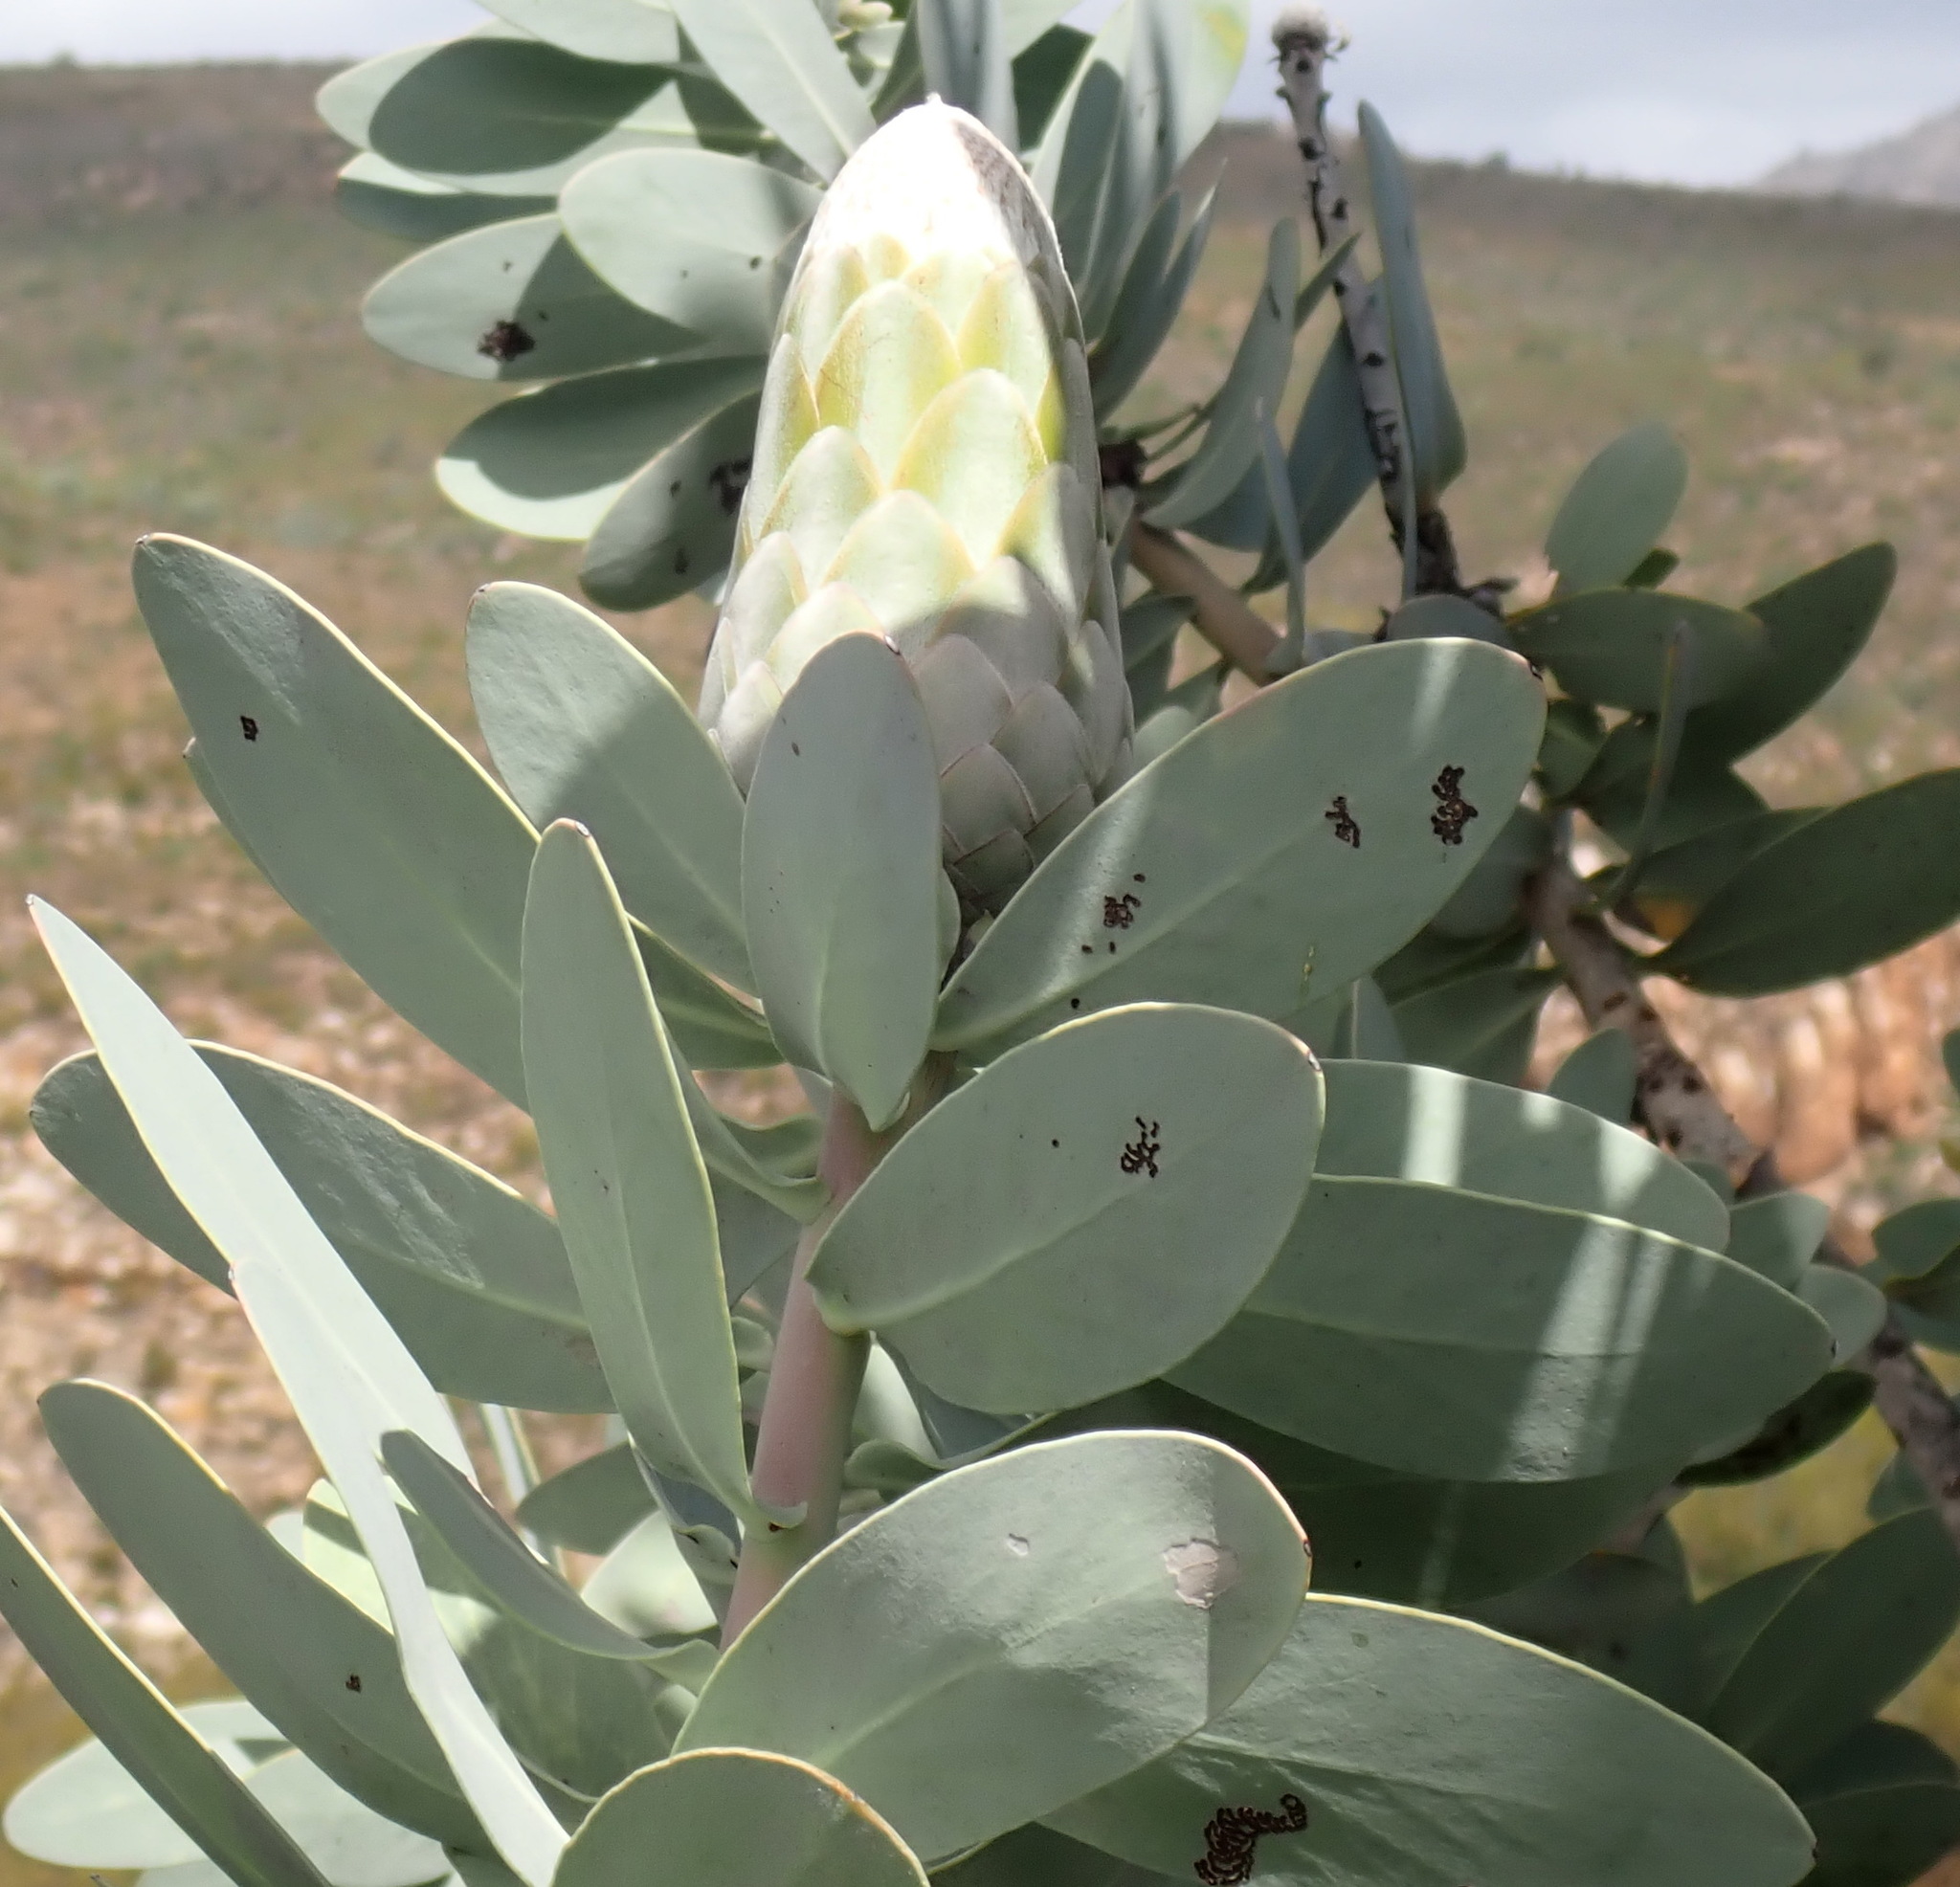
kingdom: Plantae
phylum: Tracheophyta
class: Magnoliopsida
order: Proteales
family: Proteaceae
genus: Protea
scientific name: Protea nitida
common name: Tree protea
